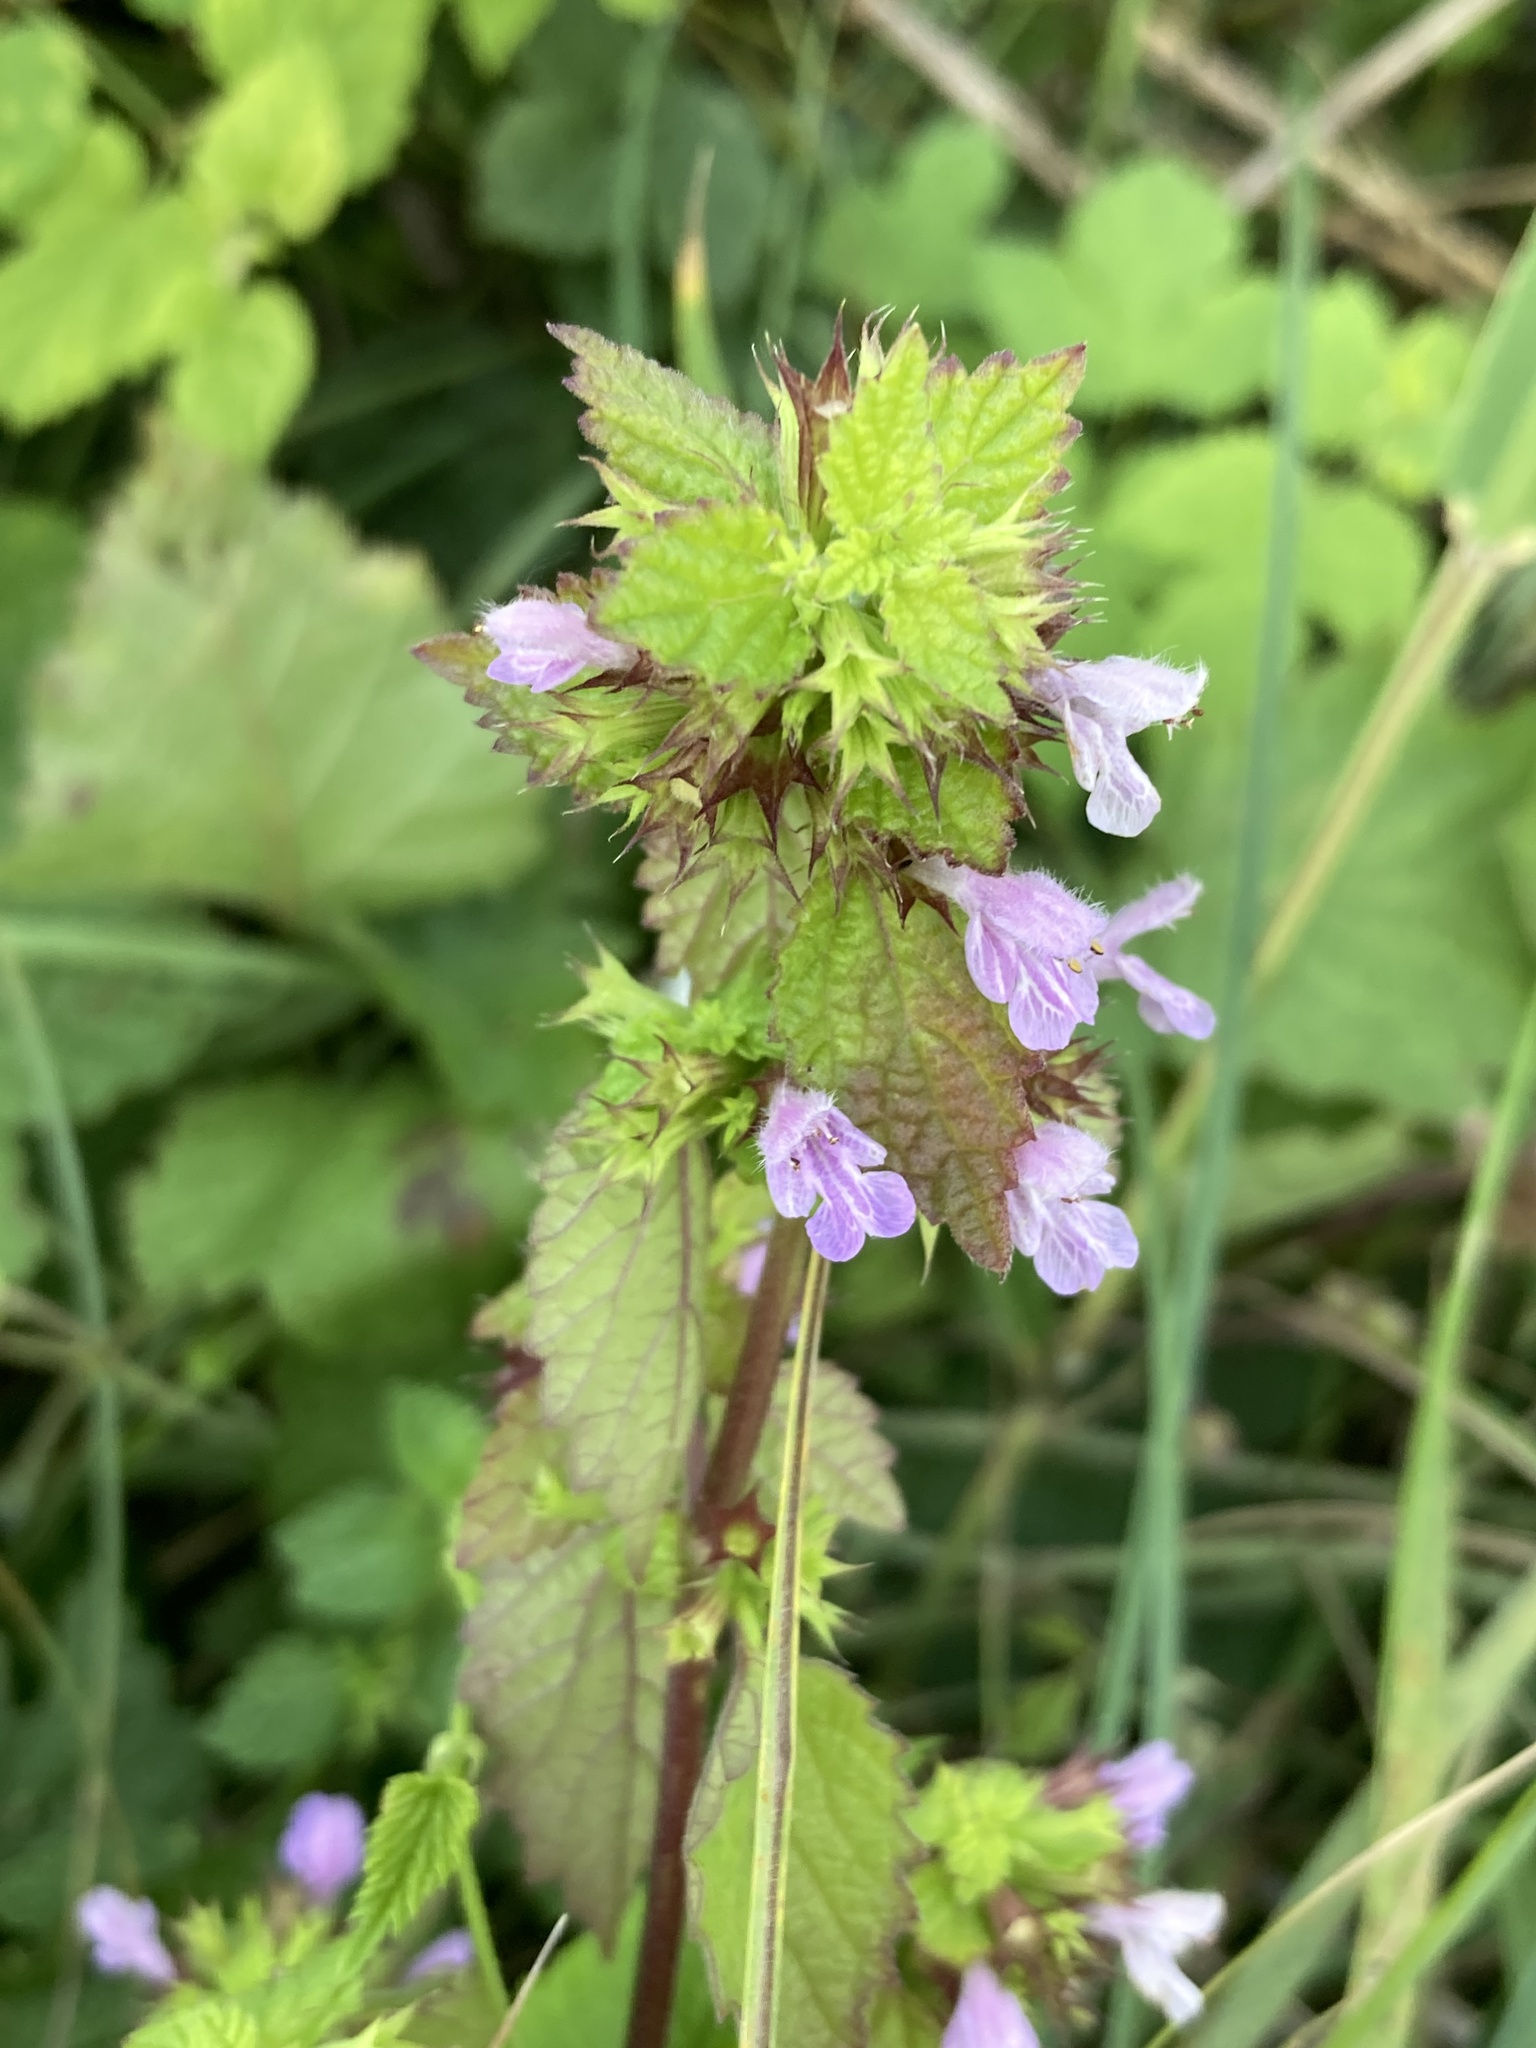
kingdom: Plantae
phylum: Tracheophyta
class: Magnoliopsida
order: Lamiales
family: Lamiaceae
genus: Ballota
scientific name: Ballota nigra
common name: Black horehound
